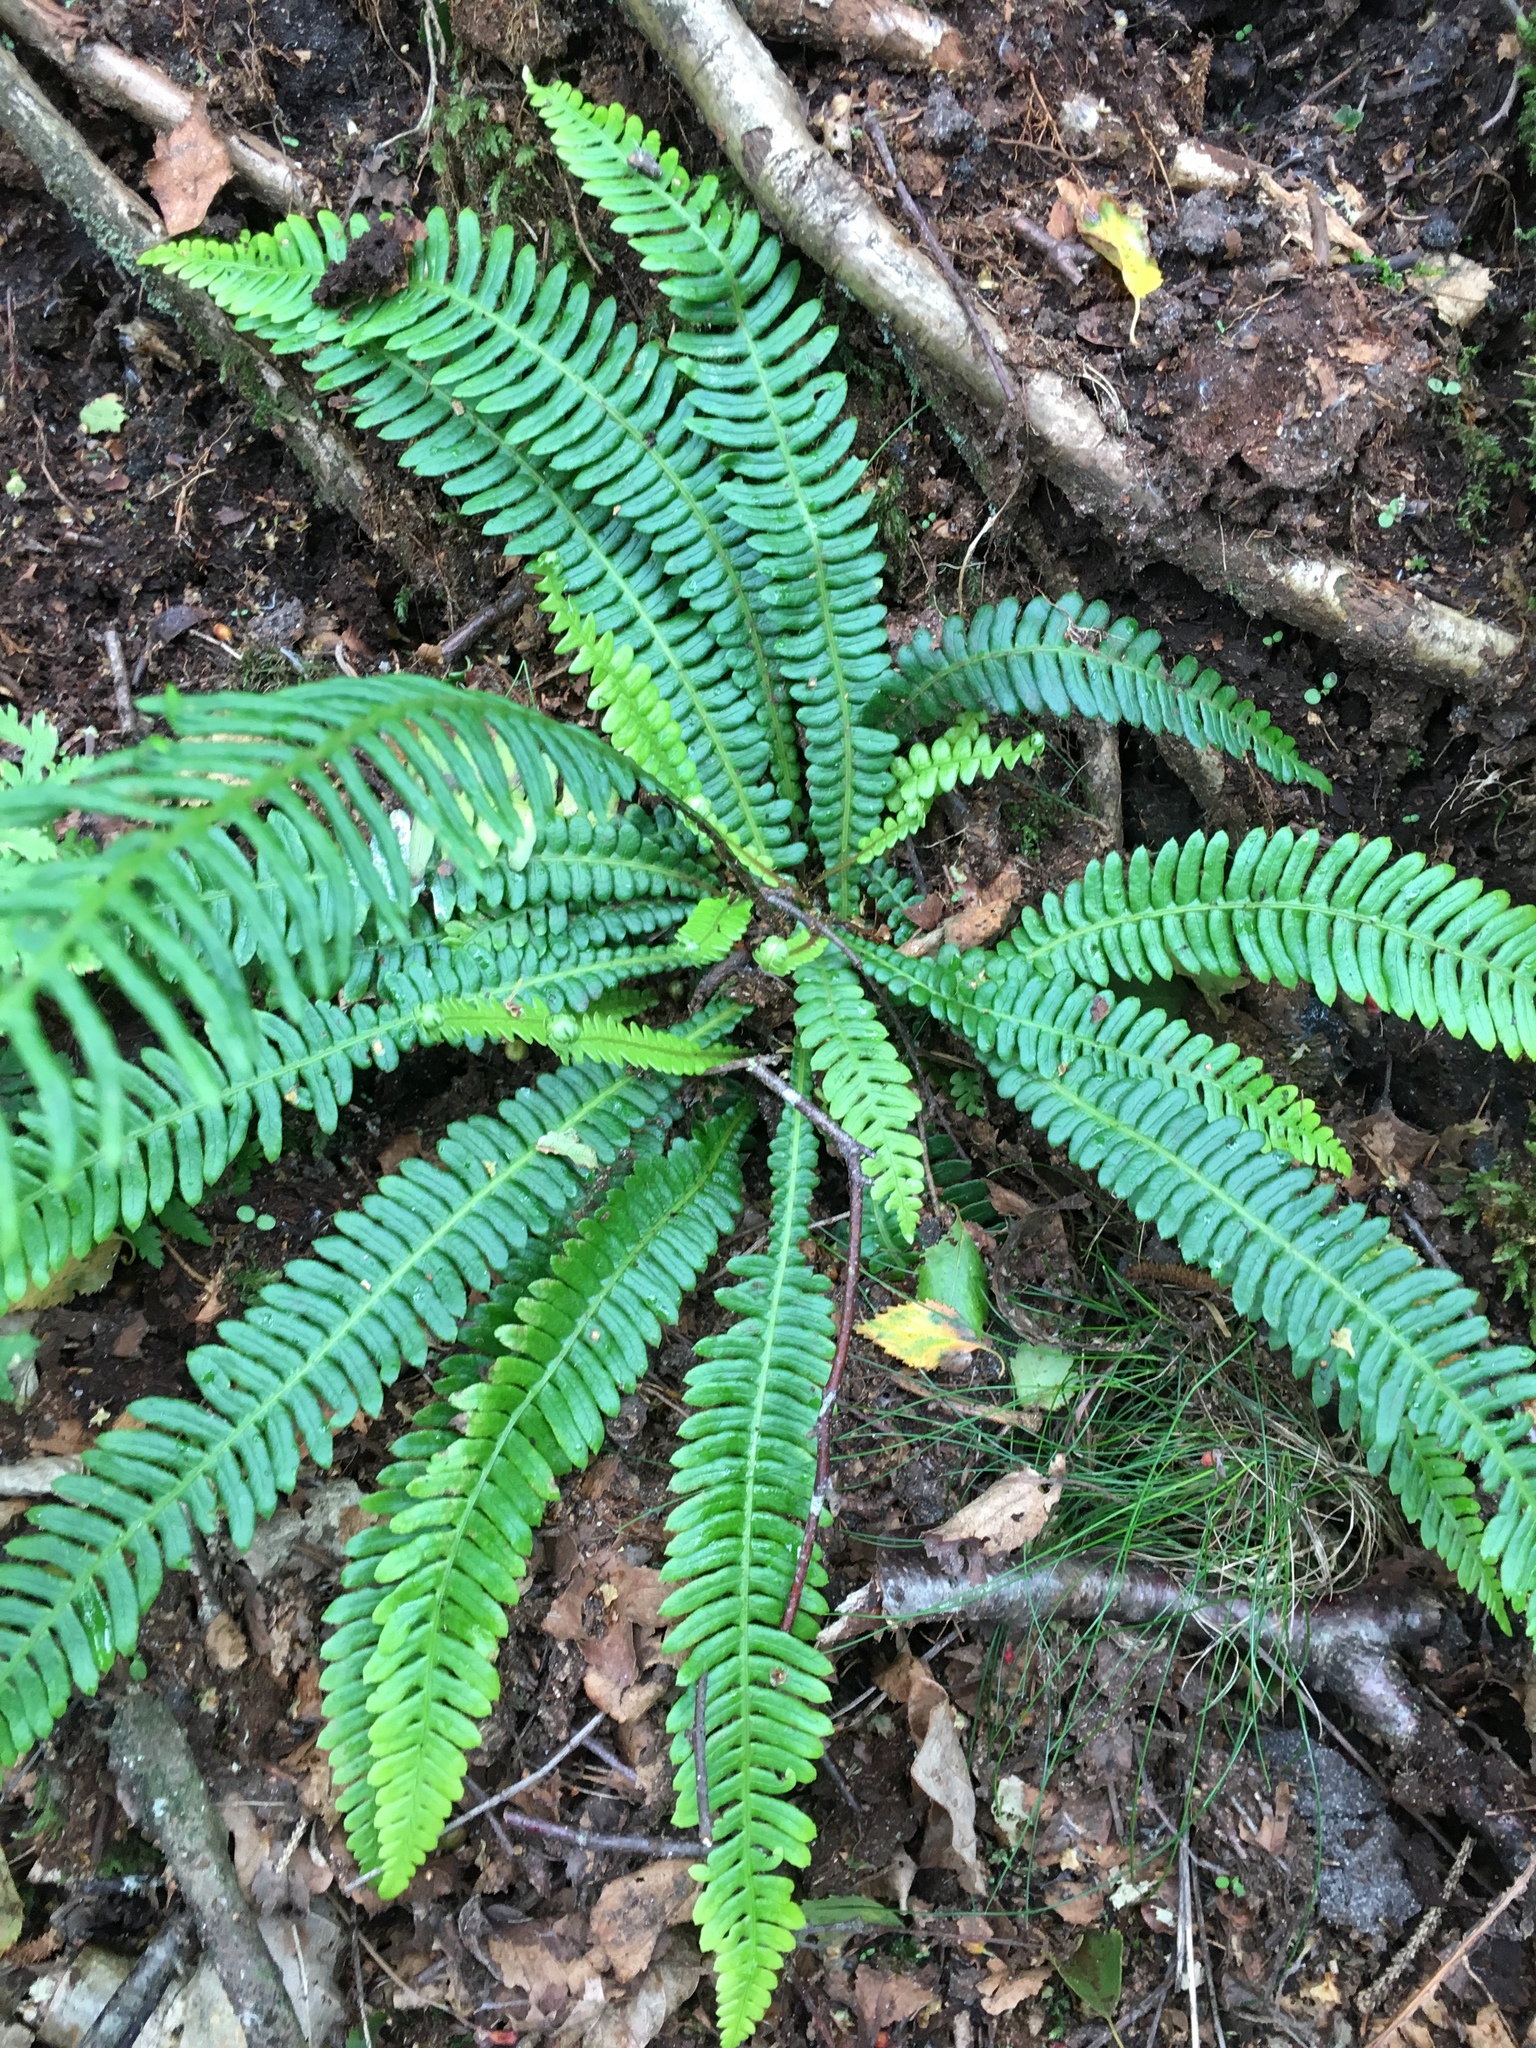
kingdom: Plantae
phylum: Tracheophyta
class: Polypodiopsida
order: Polypodiales
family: Blechnaceae
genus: Struthiopteris
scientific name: Struthiopteris spicant
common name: Deer fern
